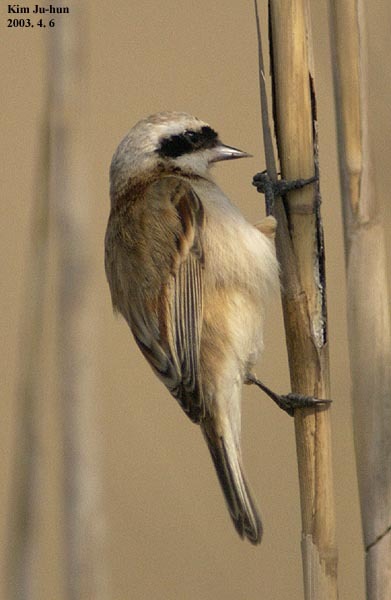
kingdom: Animalia
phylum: Chordata
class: Aves
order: Passeriformes
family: Remizidae
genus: Remiz
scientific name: Remiz consobrinus
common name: Chinese penduline tit
